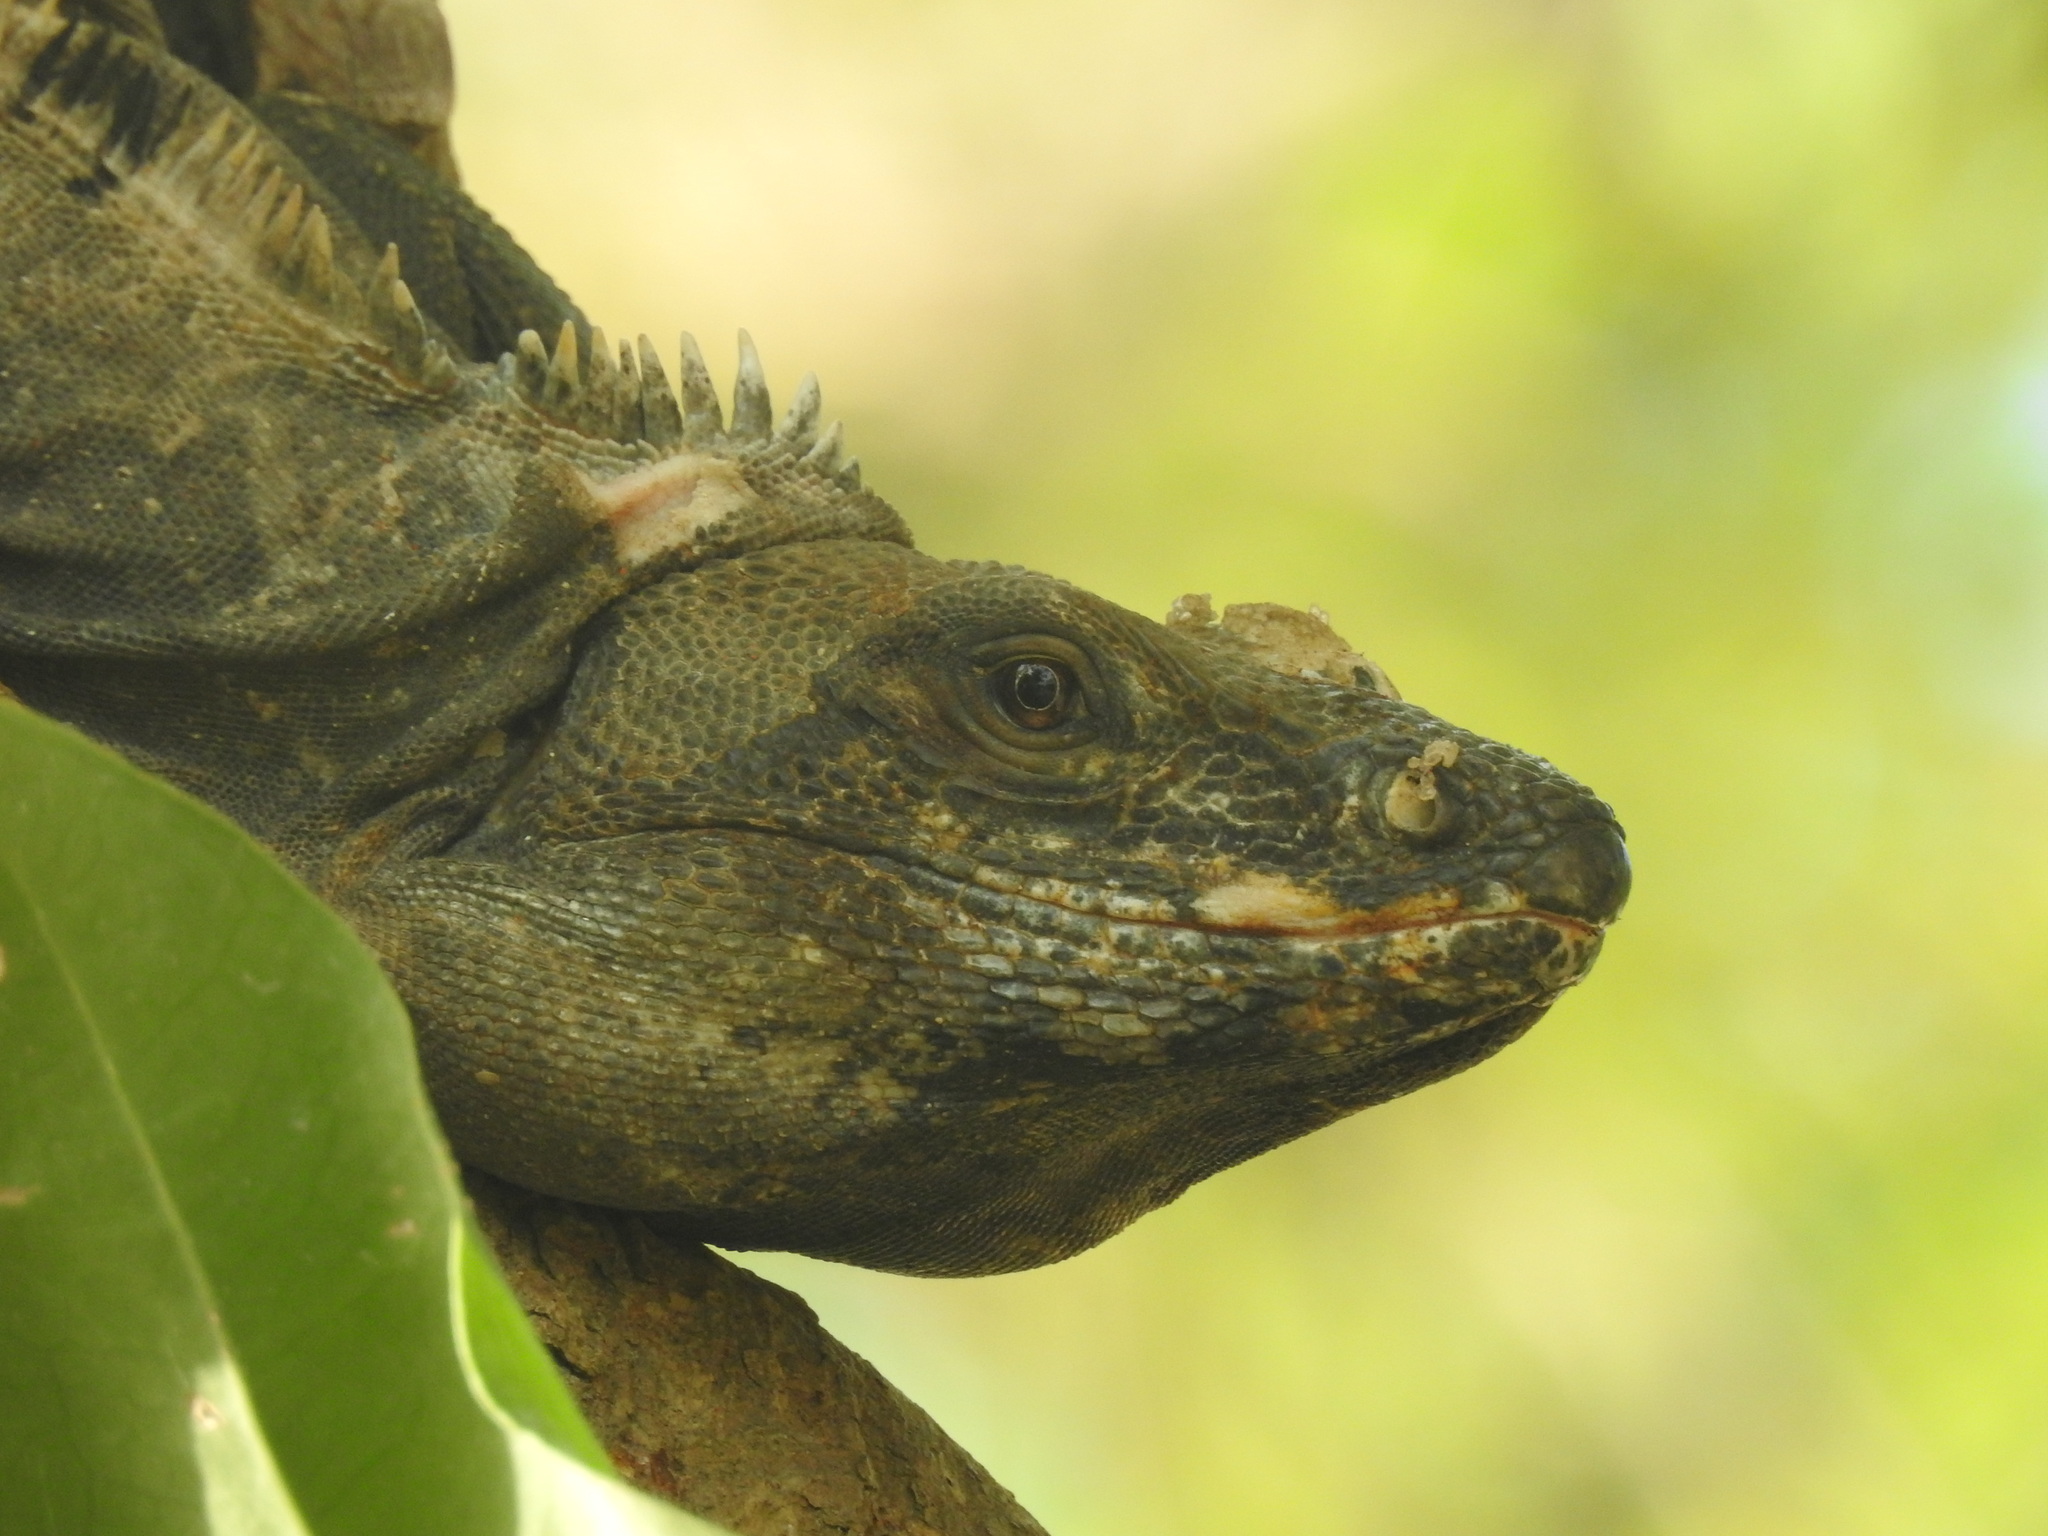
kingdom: Animalia
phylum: Chordata
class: Squamata
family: Iguanidae
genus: Ctenosaura
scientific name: Ctenosaura similis
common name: Black spiny-tailed iguana
